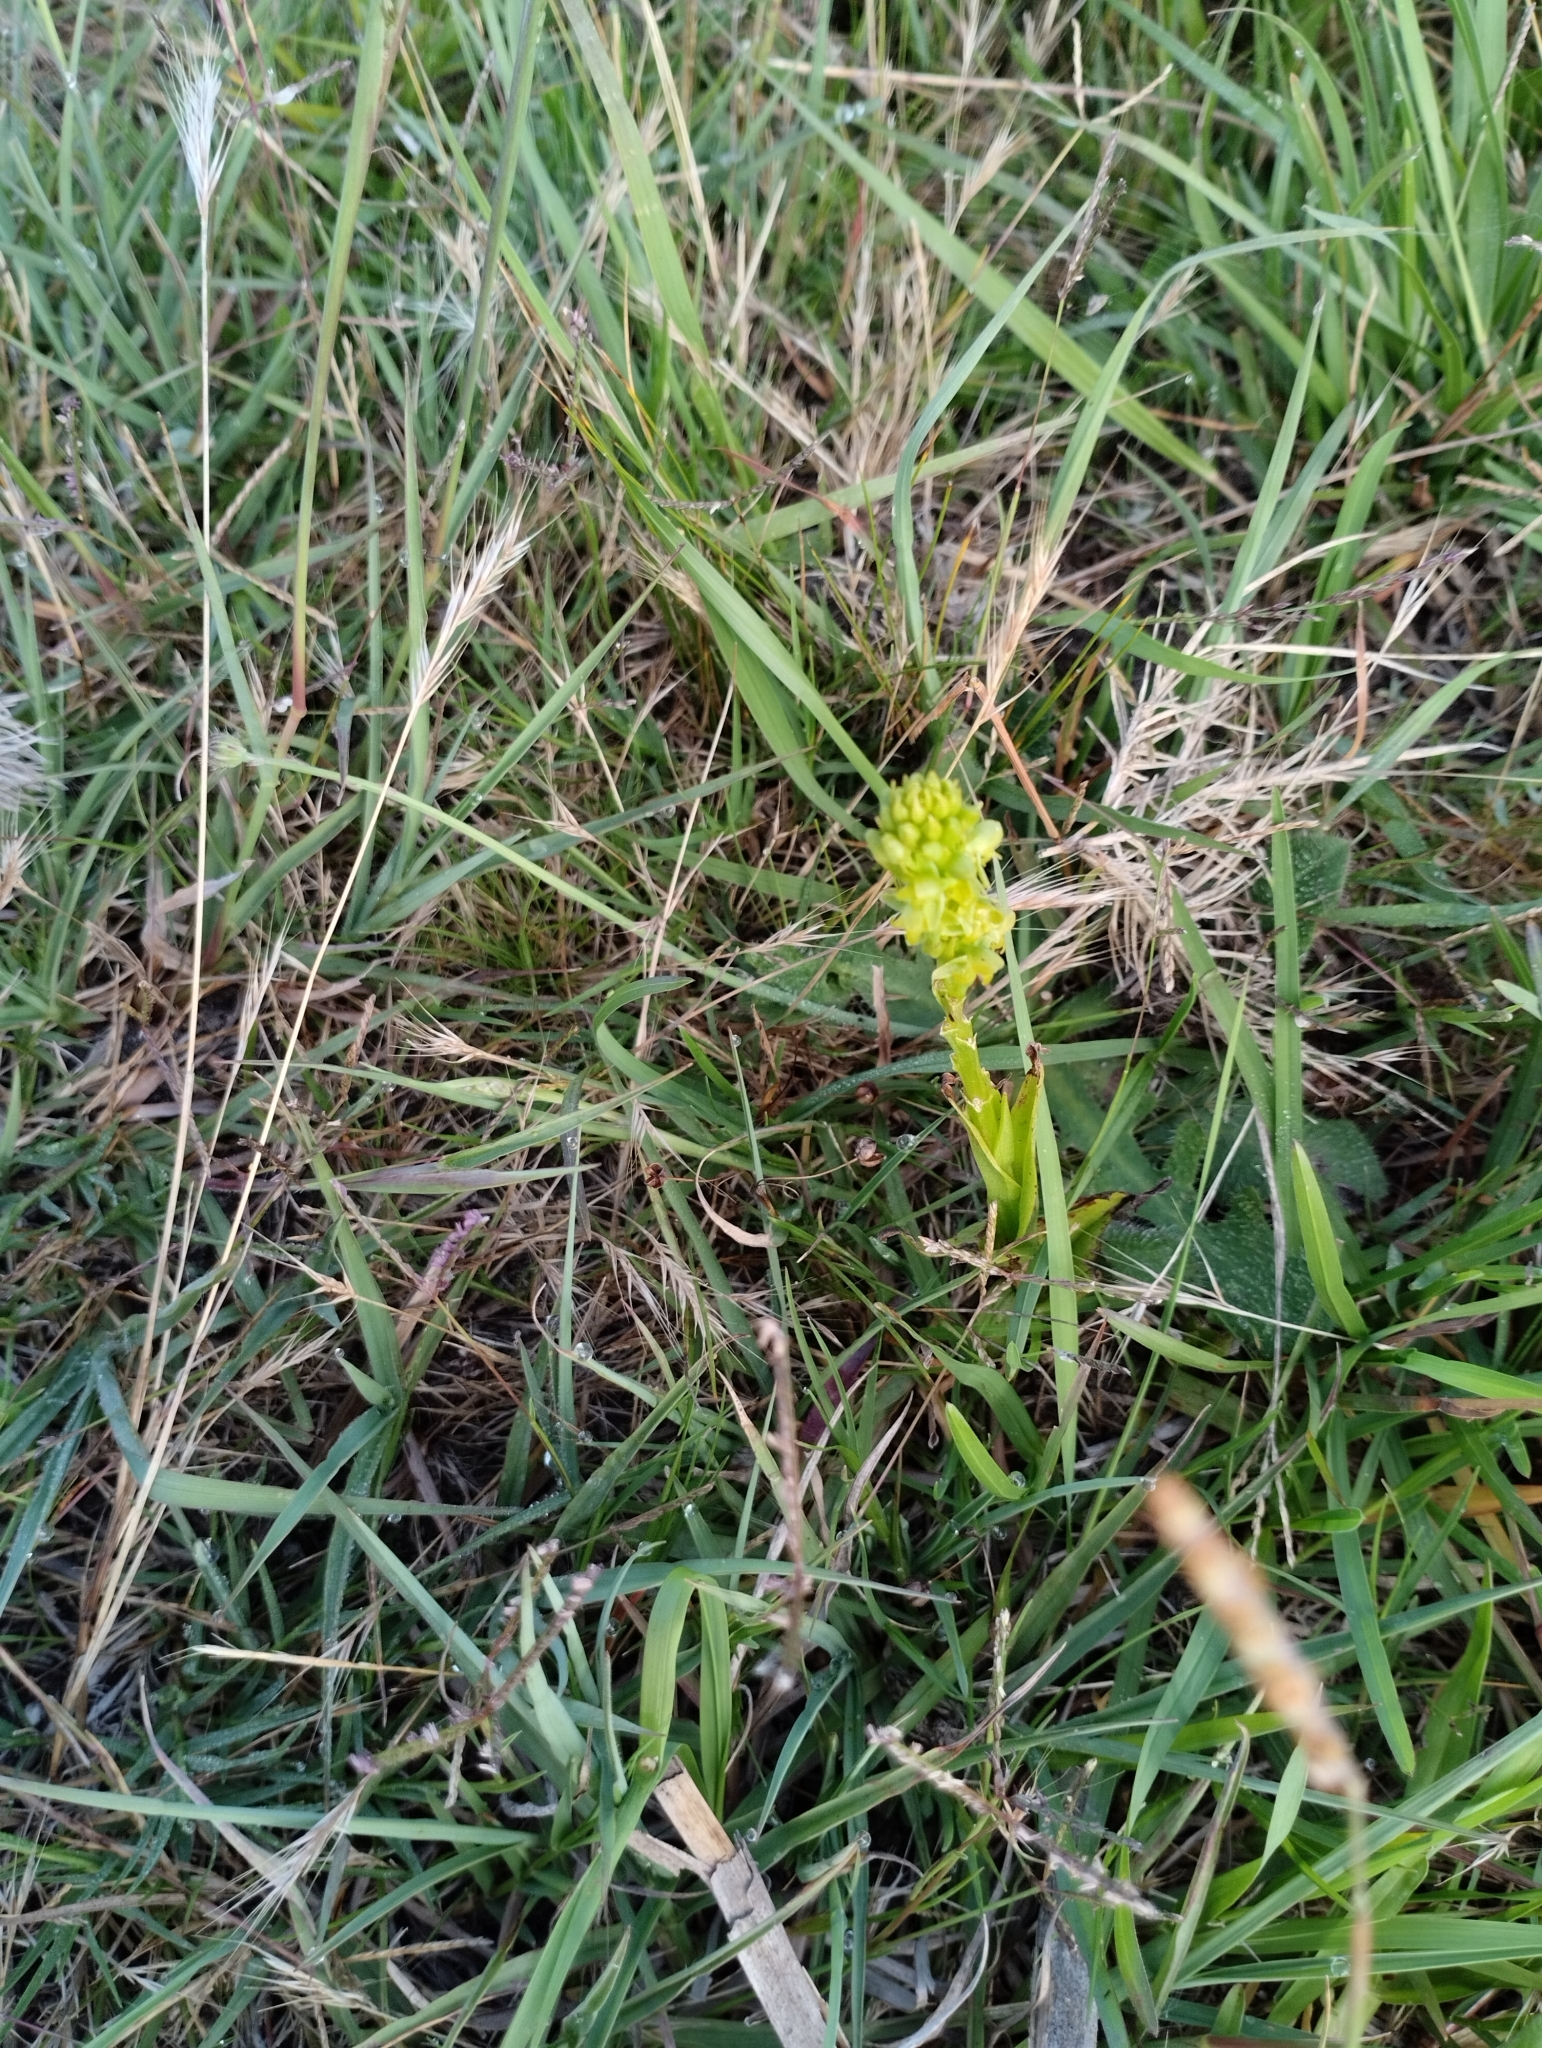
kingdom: Plantae
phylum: Tracheophyta
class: Liliopsida
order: Asparagales
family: Orchidaceae
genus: Habenaria
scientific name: Habenaria parviflora
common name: Small flowered habenaria
